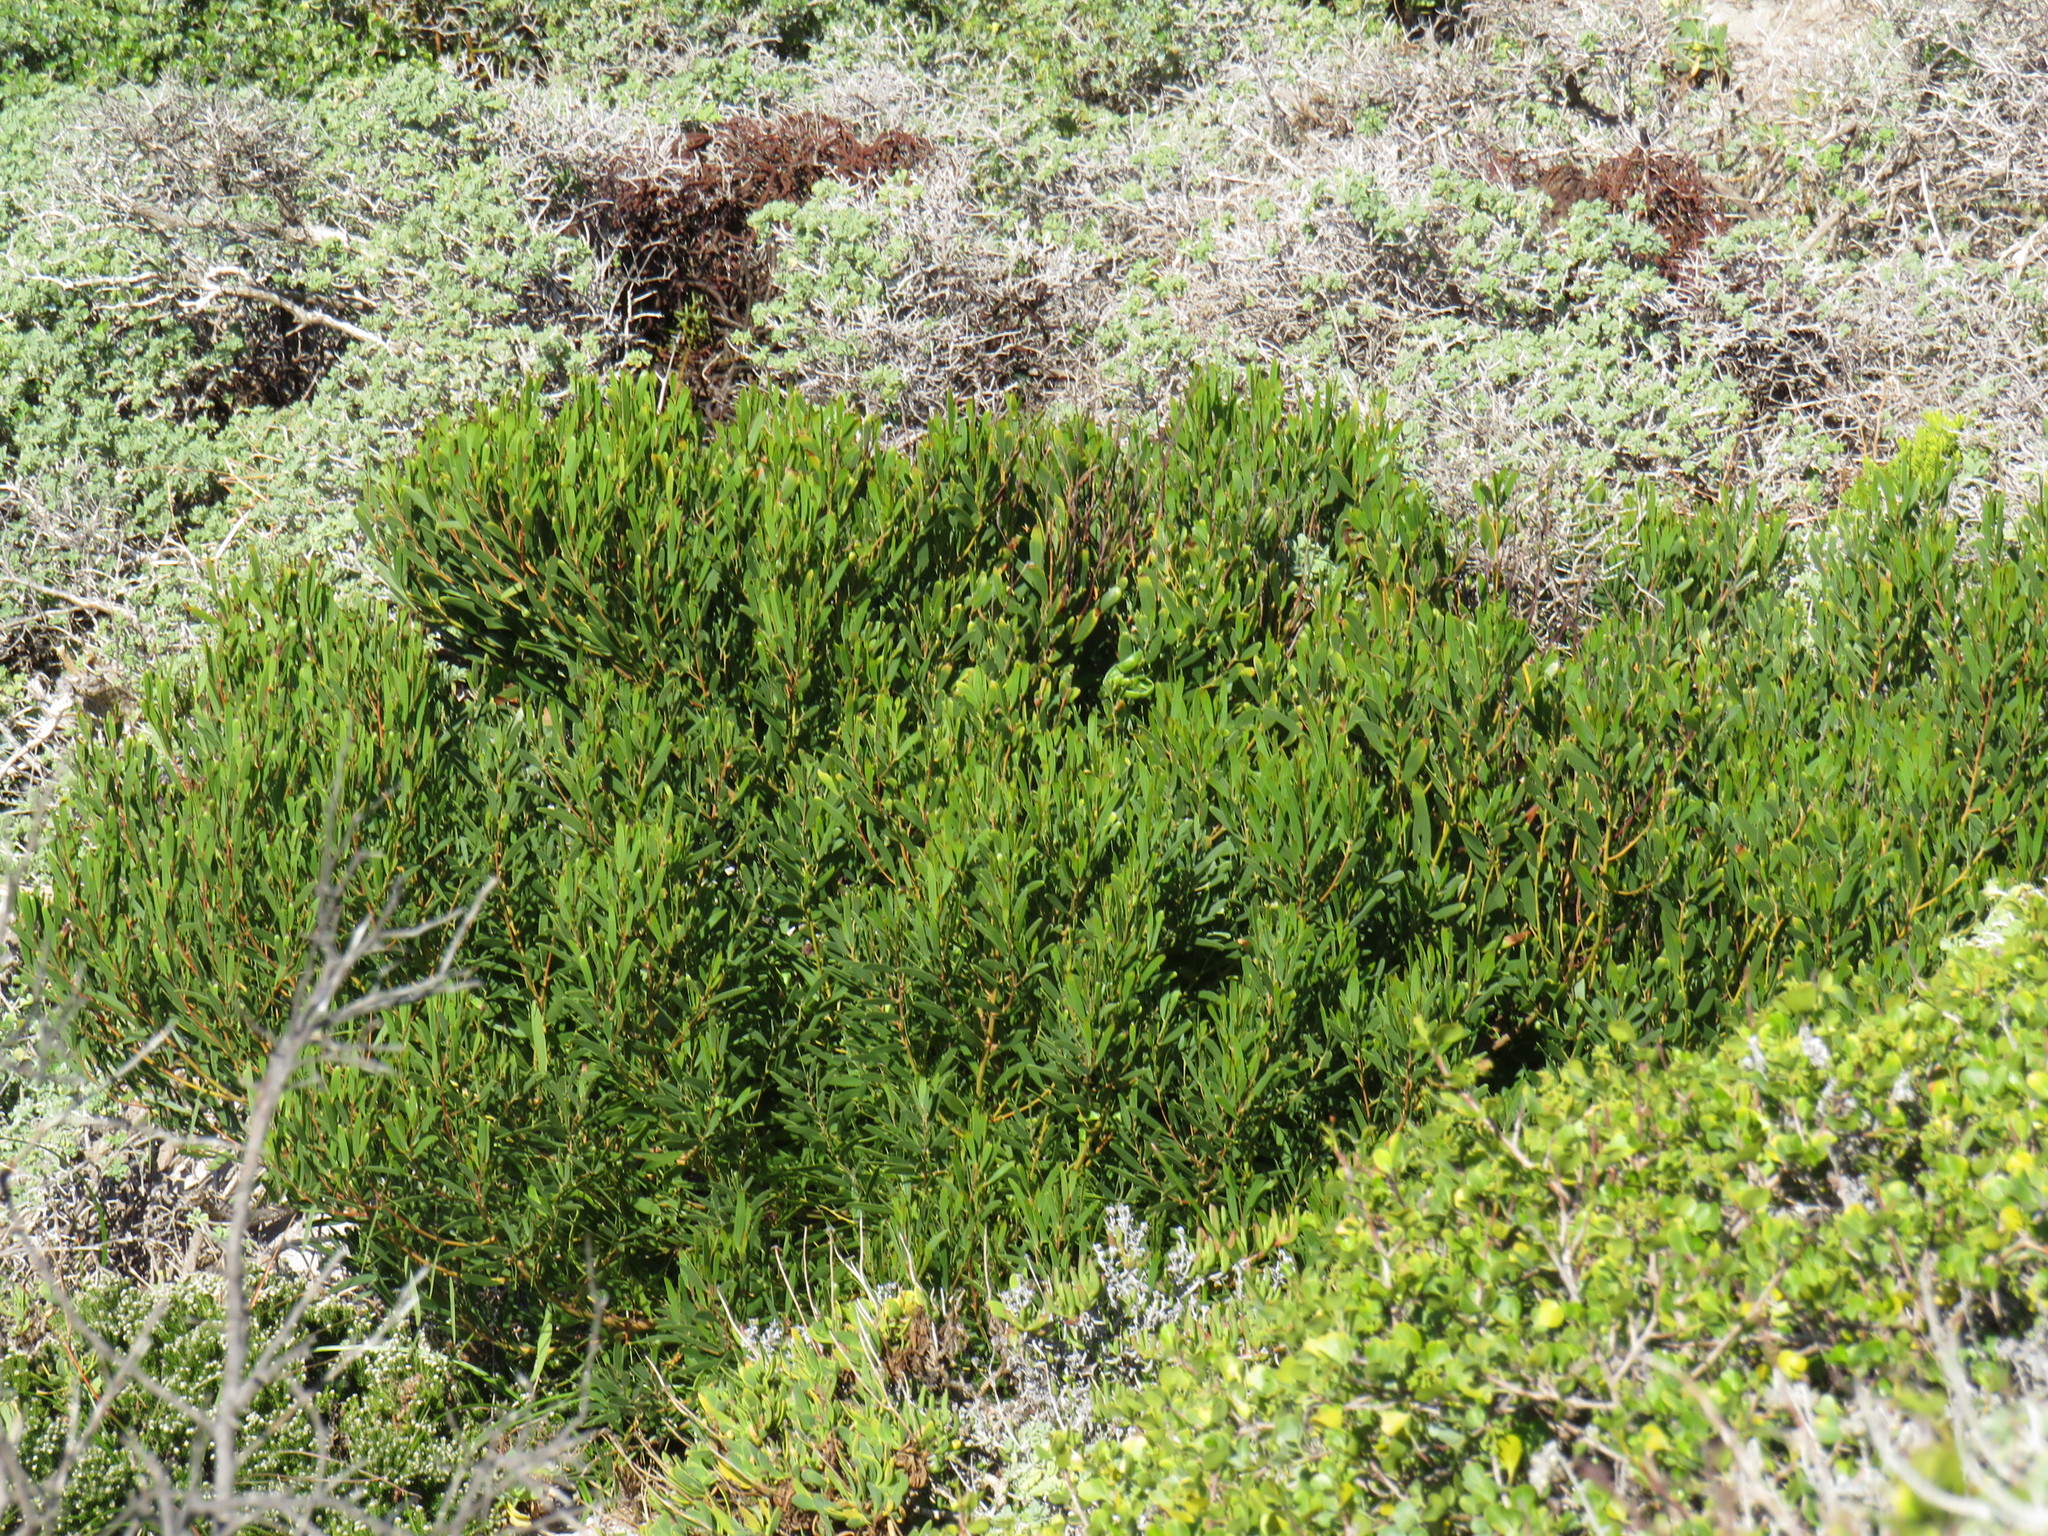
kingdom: Plantae
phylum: Tracheophyta
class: Magnoliopsida
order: Fabales
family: Fabaceae
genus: Acacia
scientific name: Acacia cyclops
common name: Coastal wattle
